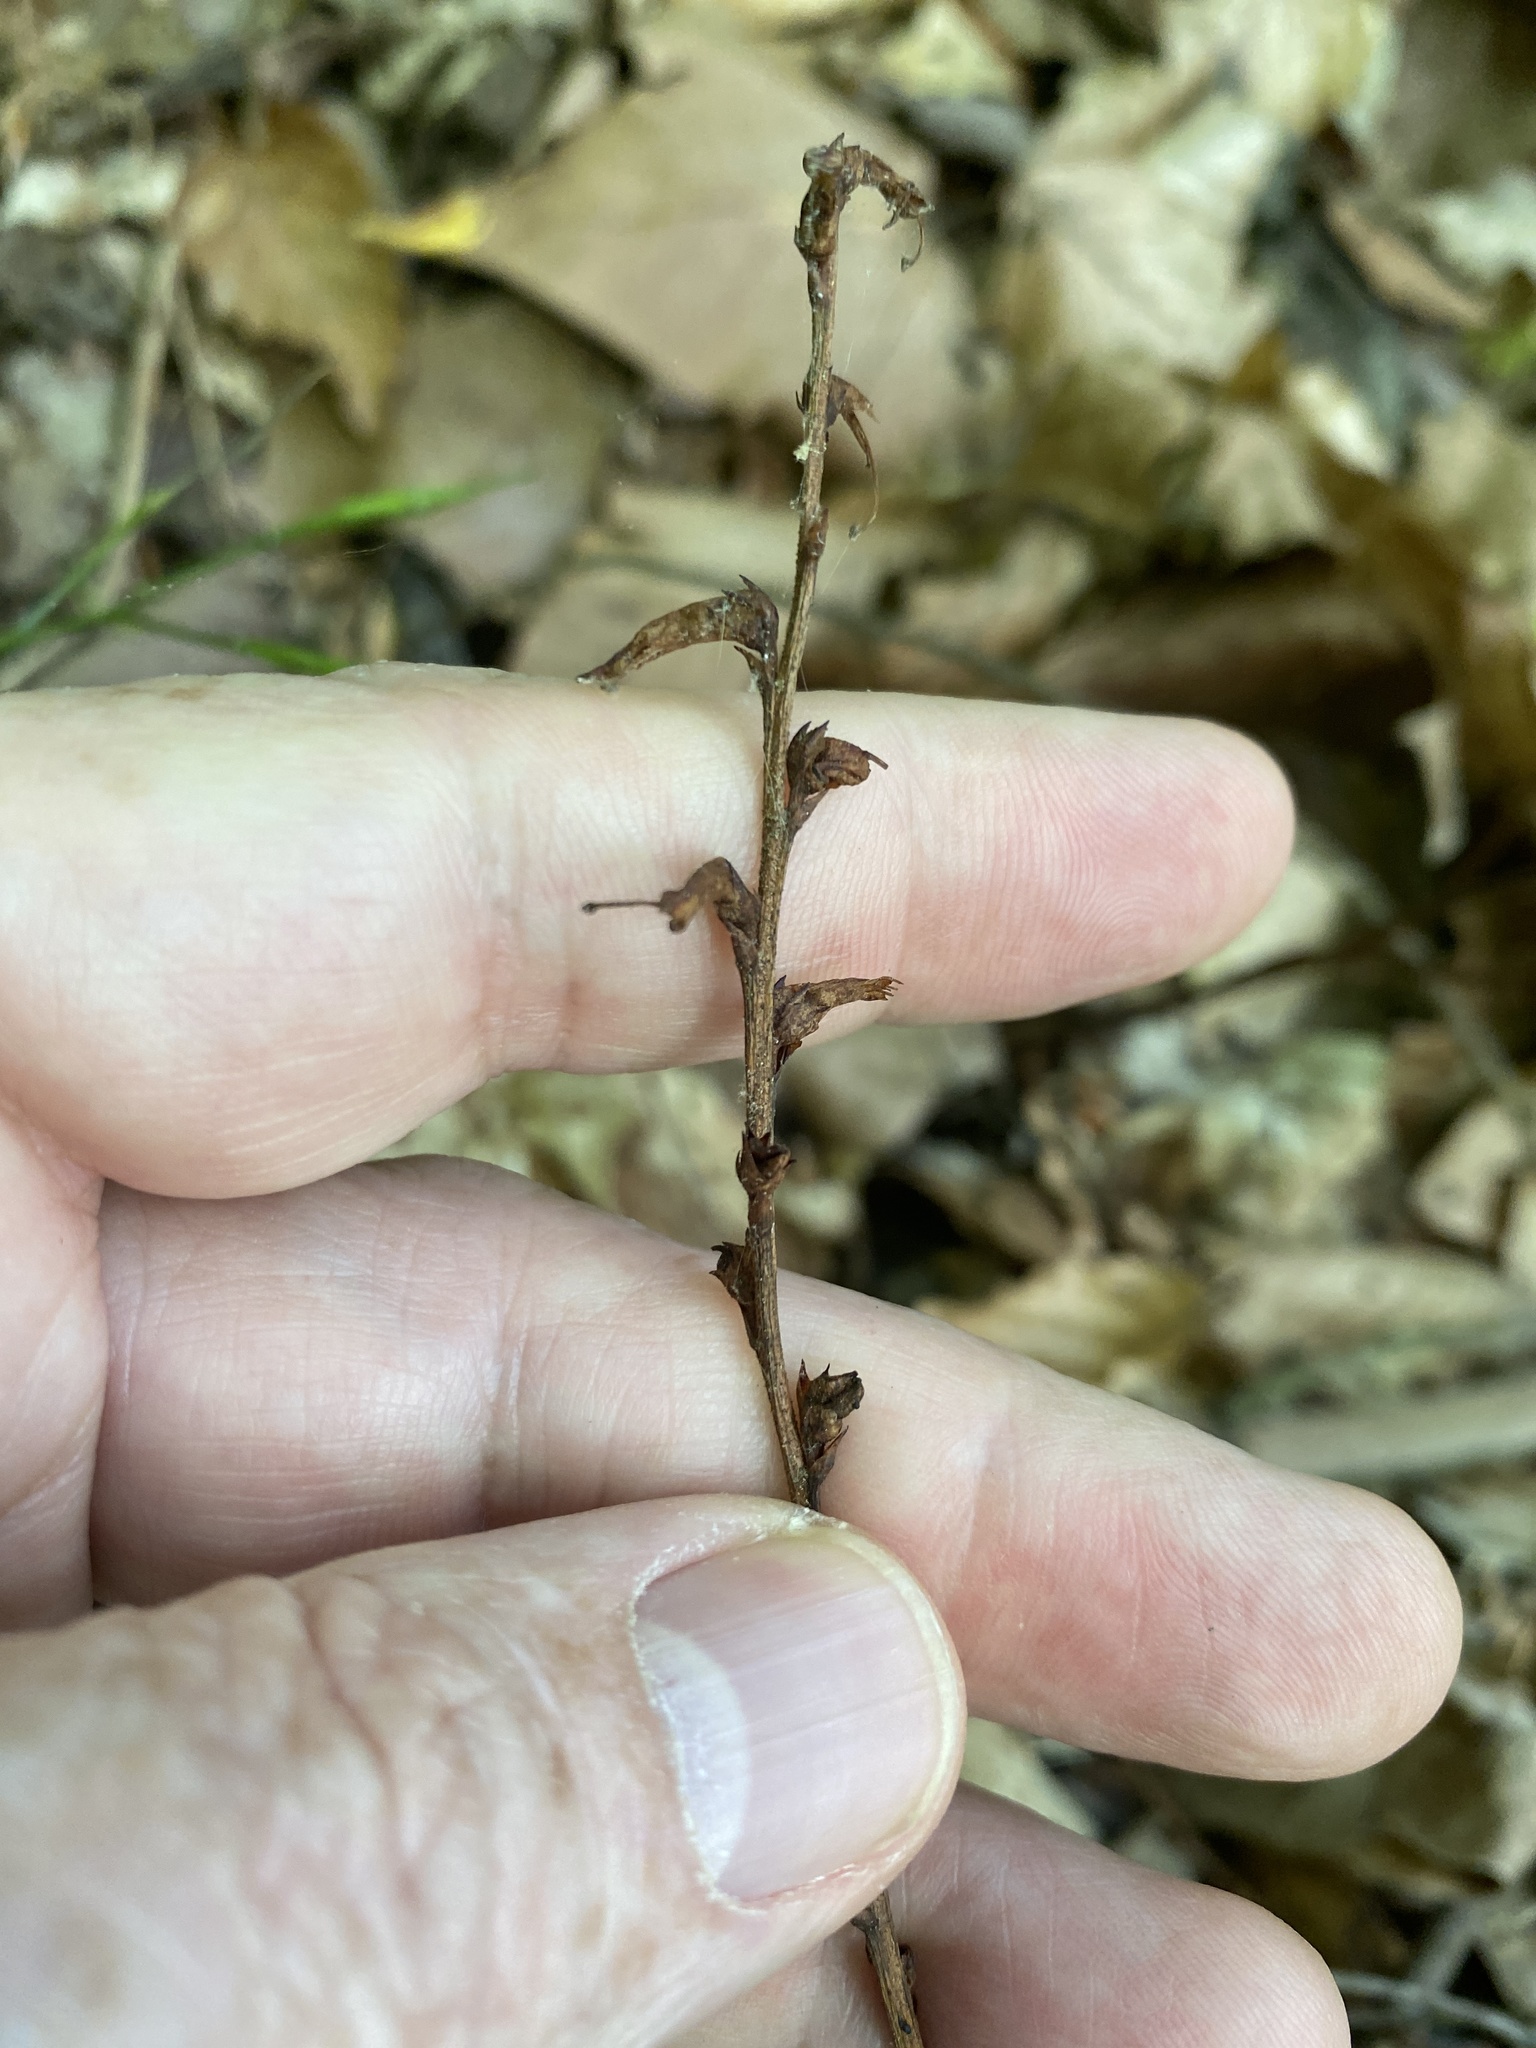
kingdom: Plantae
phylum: Tracheophyta
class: Magnoliopsida
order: Lamiales
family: Orobanchaceae
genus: Epifagus
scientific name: Epifagus virginiana
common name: Beechdrops
